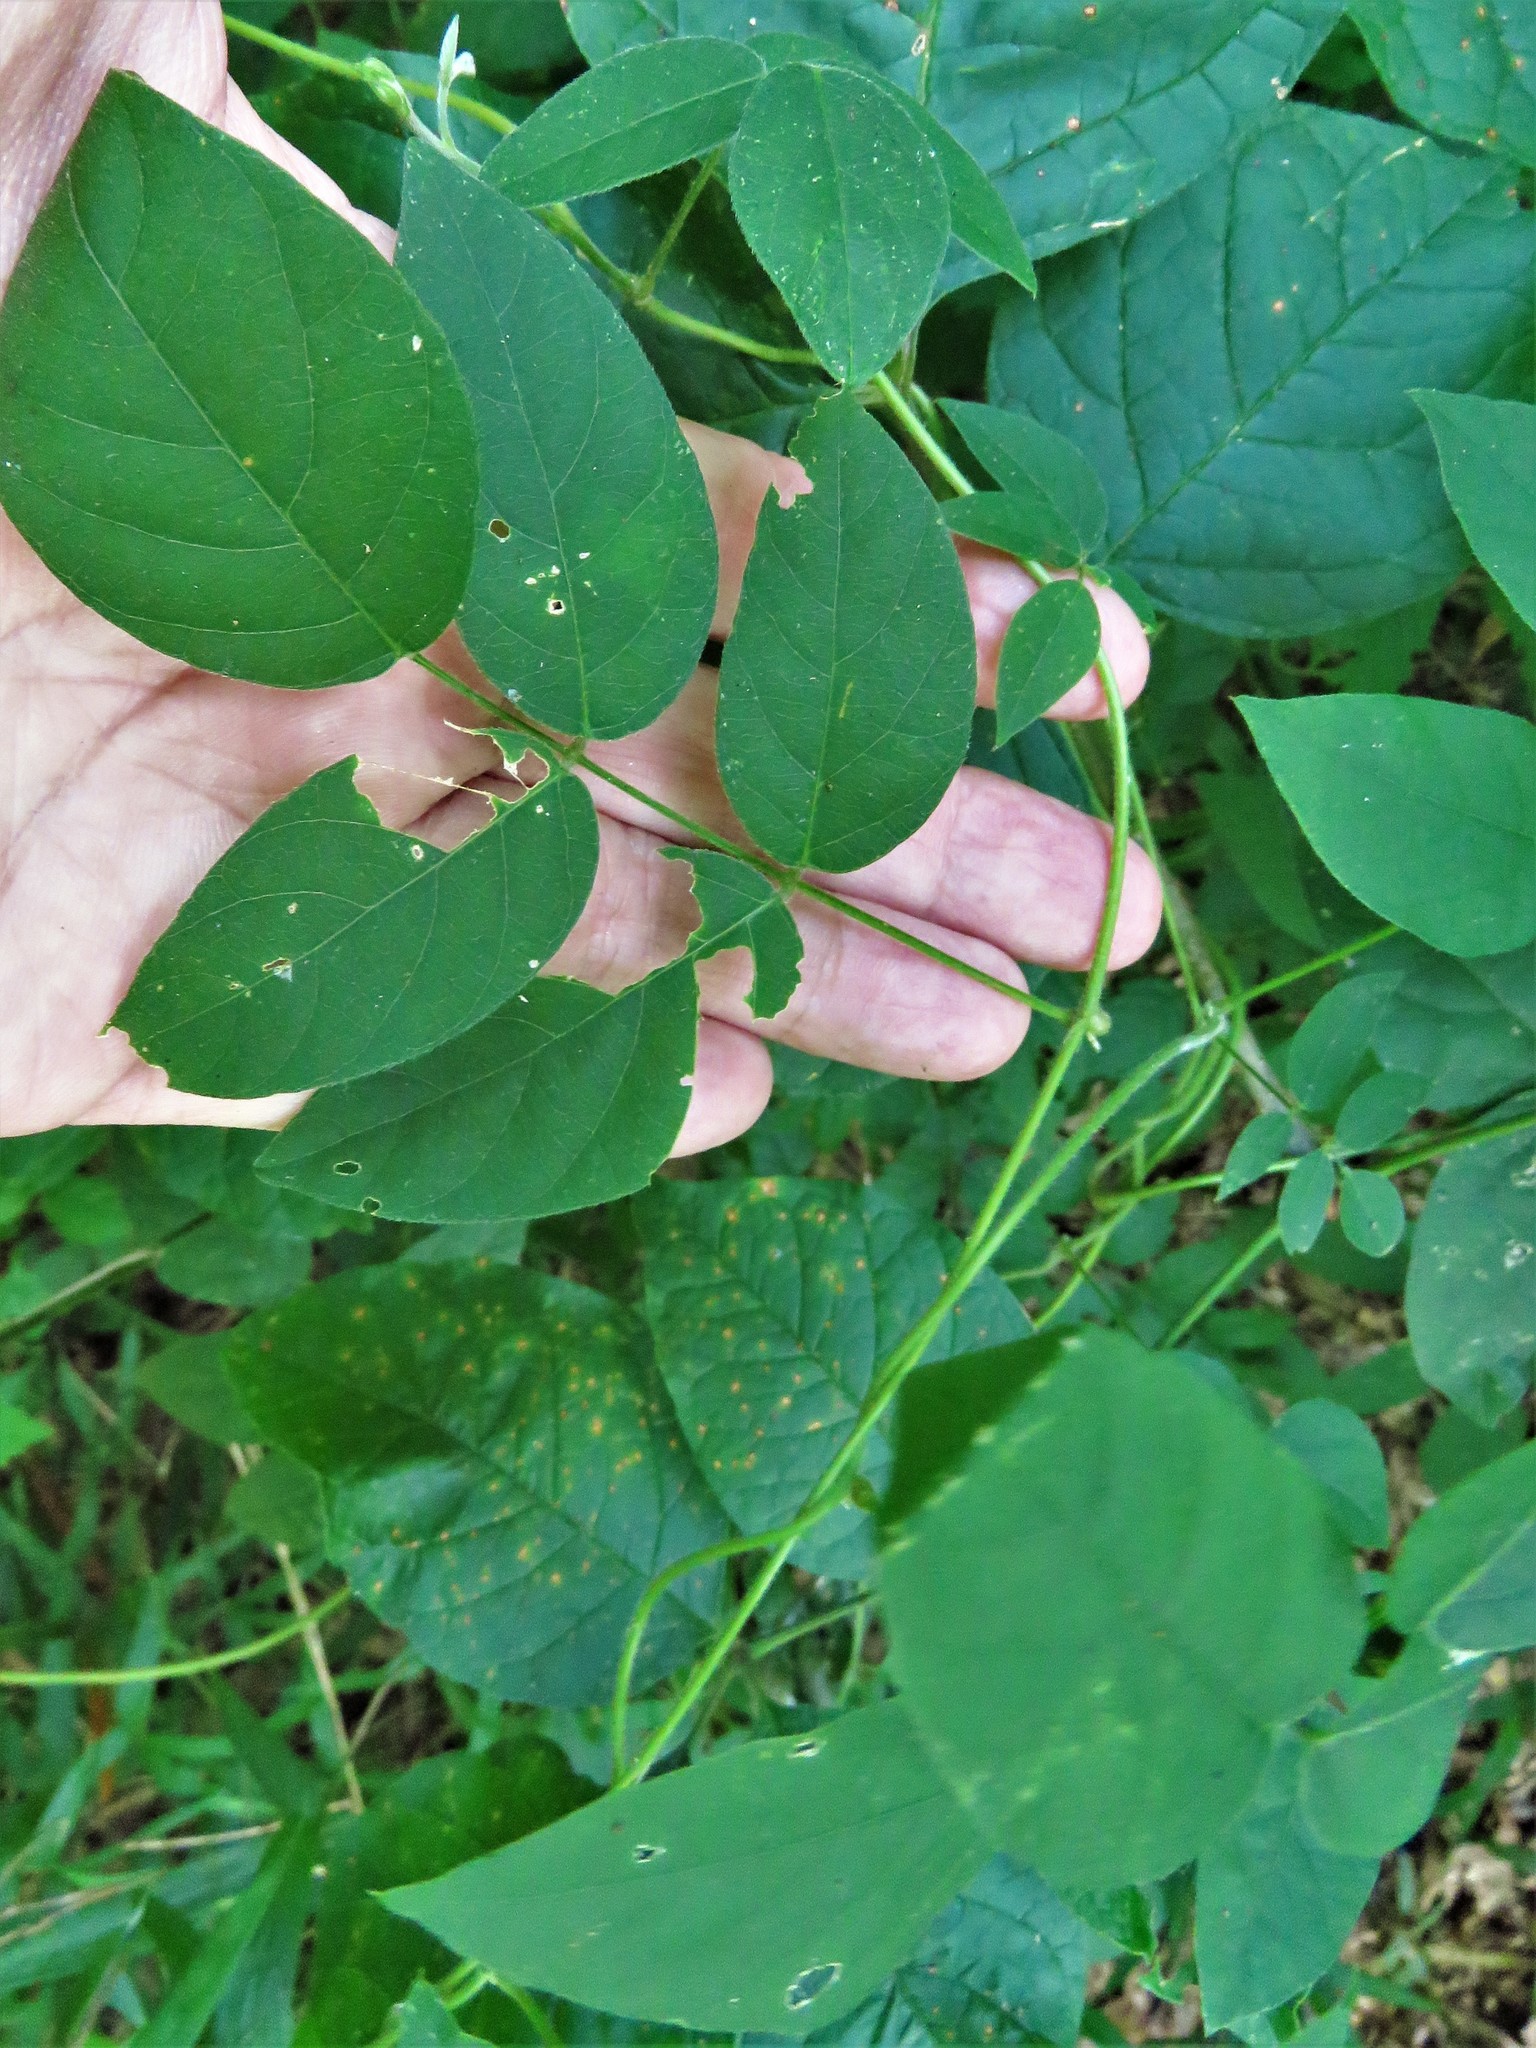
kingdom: Plantae
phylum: Tracheophyta
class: Magnoliopsida
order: Fabales
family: Fabaceae
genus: Apios
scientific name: Apios americana
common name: American potato-bean
